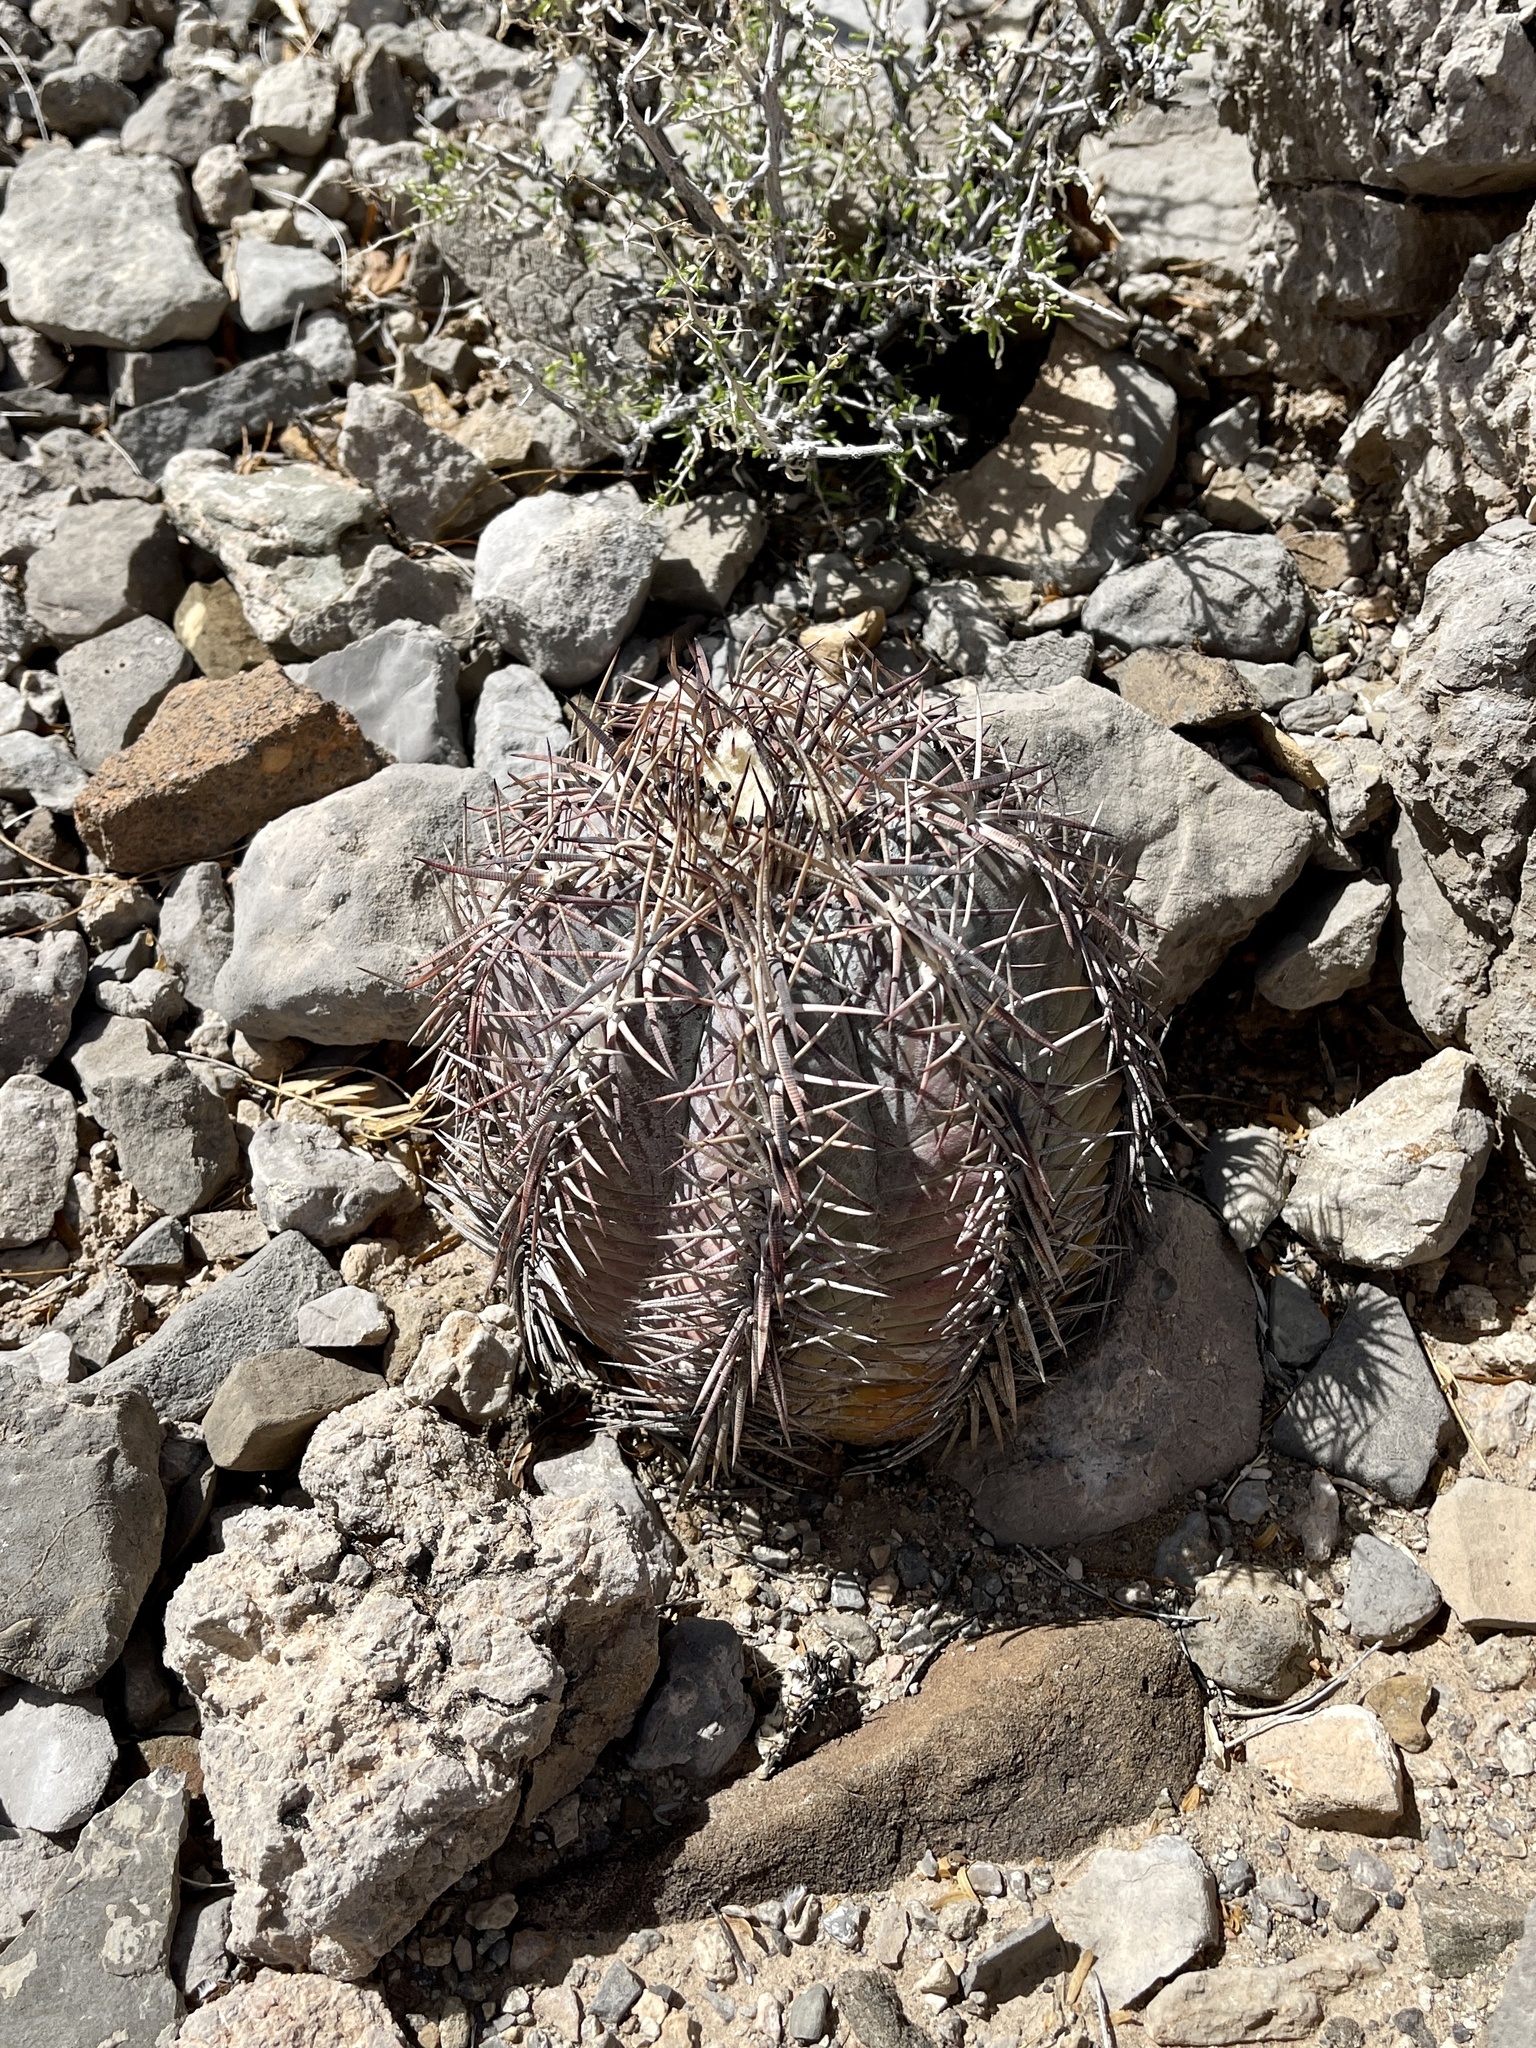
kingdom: Plantae
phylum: Tracheophyta
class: Magnoliopsida
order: Caryophyllales
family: Cactaceae
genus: Echinocactus
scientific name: Echinocactus horizonthalonius
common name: Devilshead
